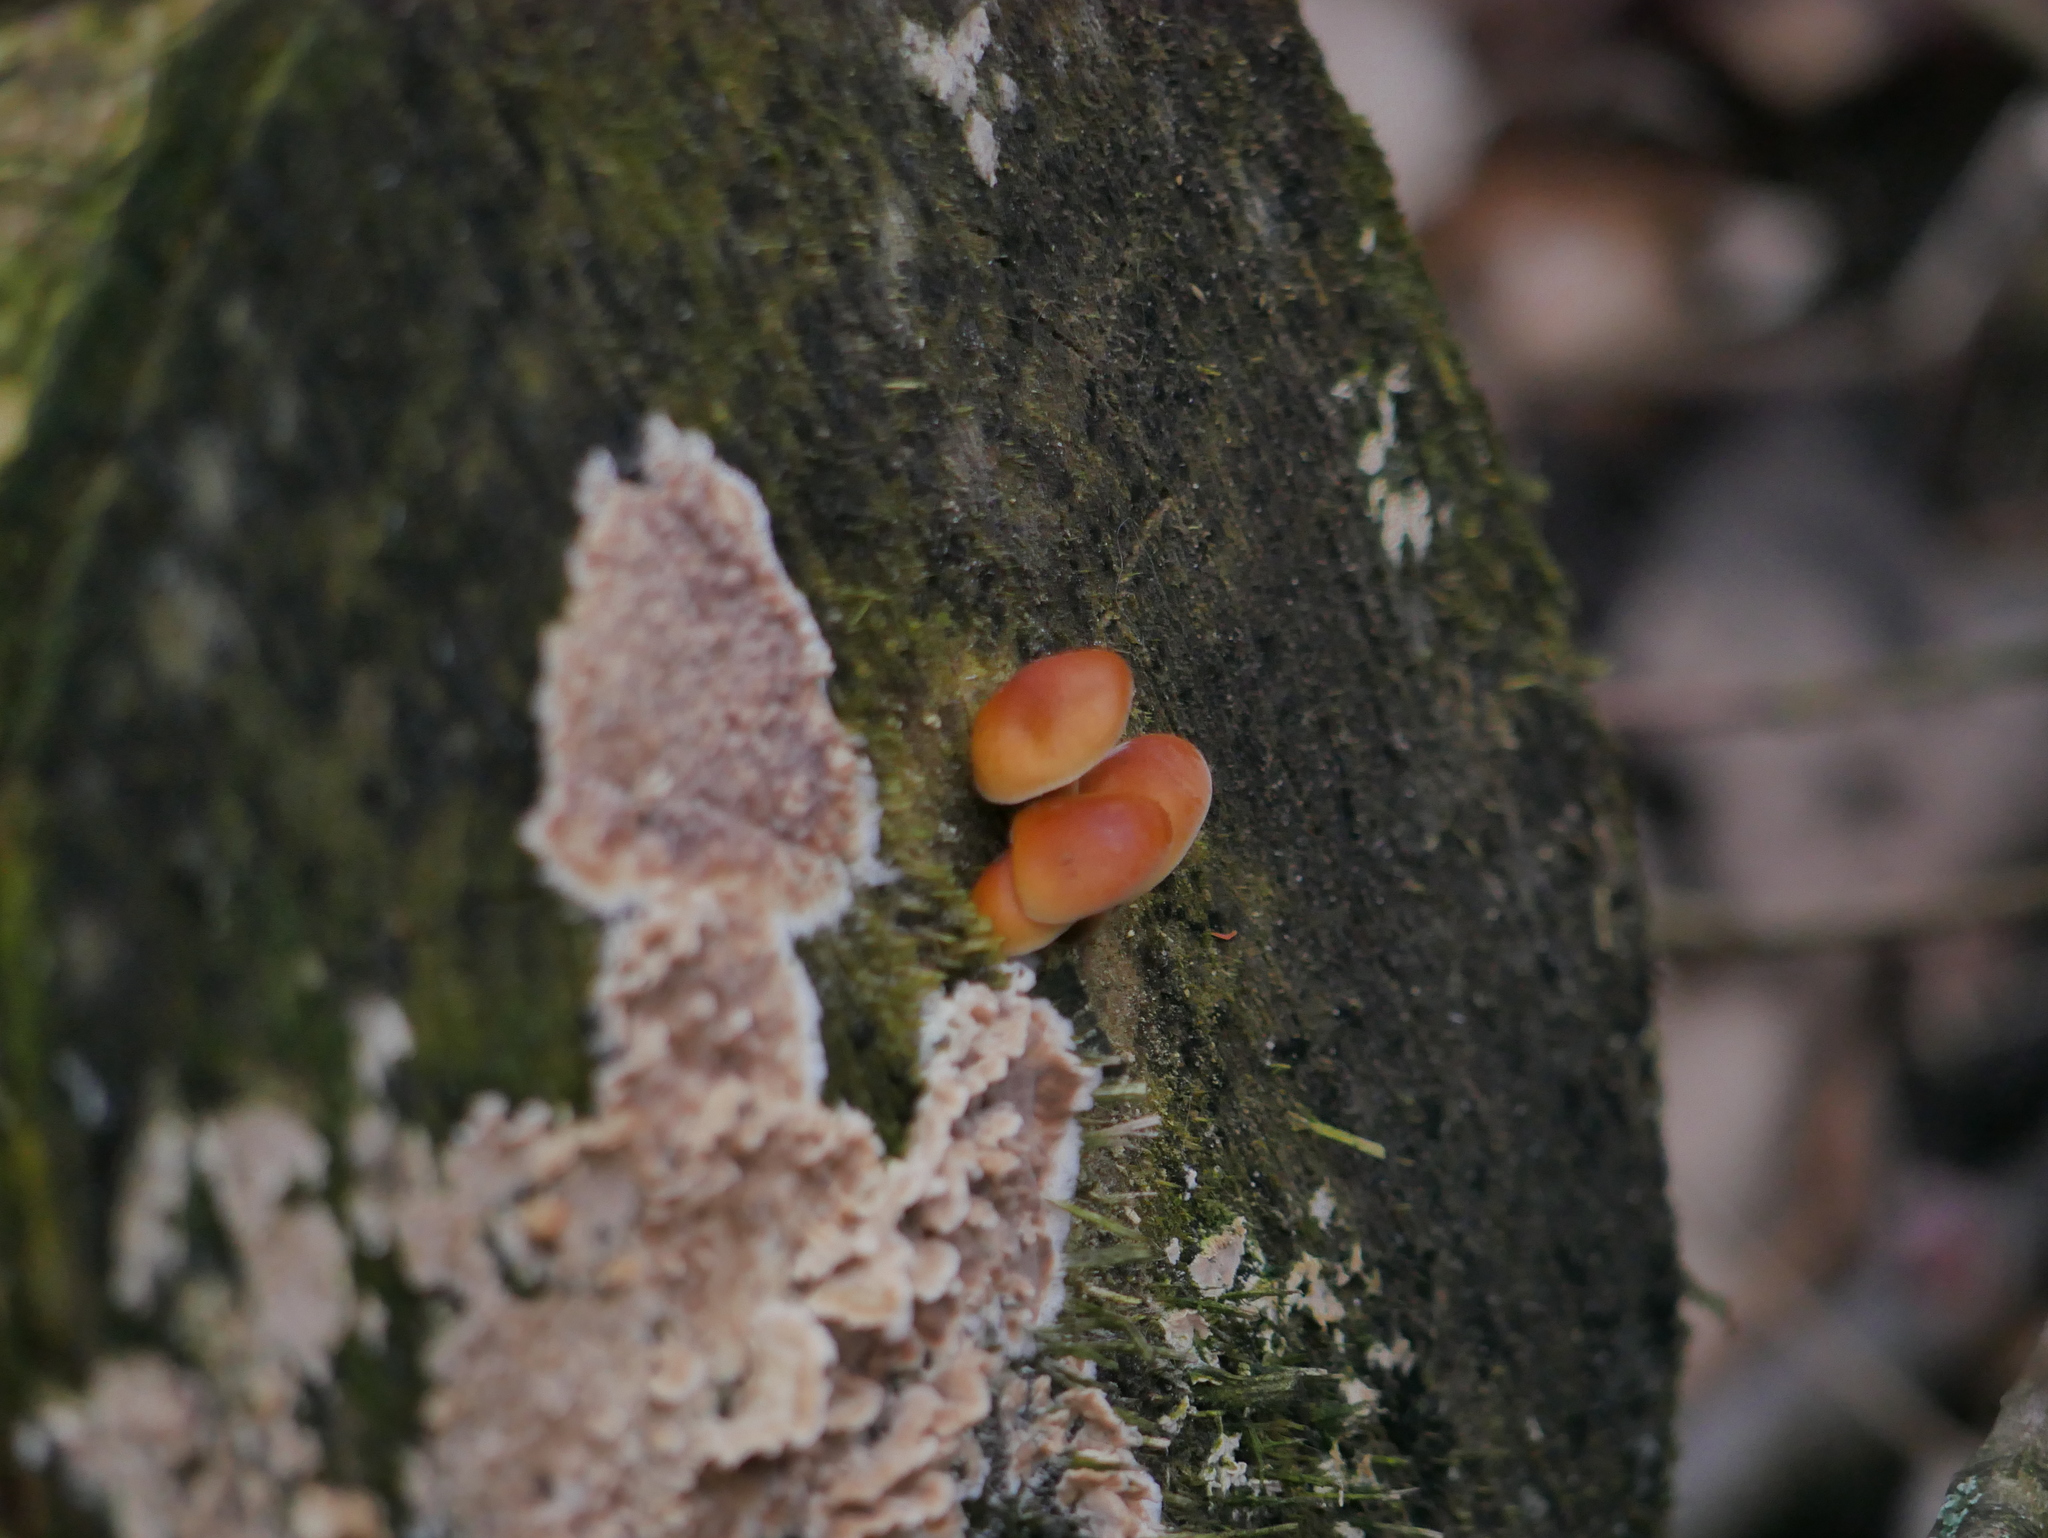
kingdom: Fungi
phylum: Basidiomycota
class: Agaricomycetes
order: Agaricales
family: Physalacriaceae
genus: Flammulina
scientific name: Flammulina
